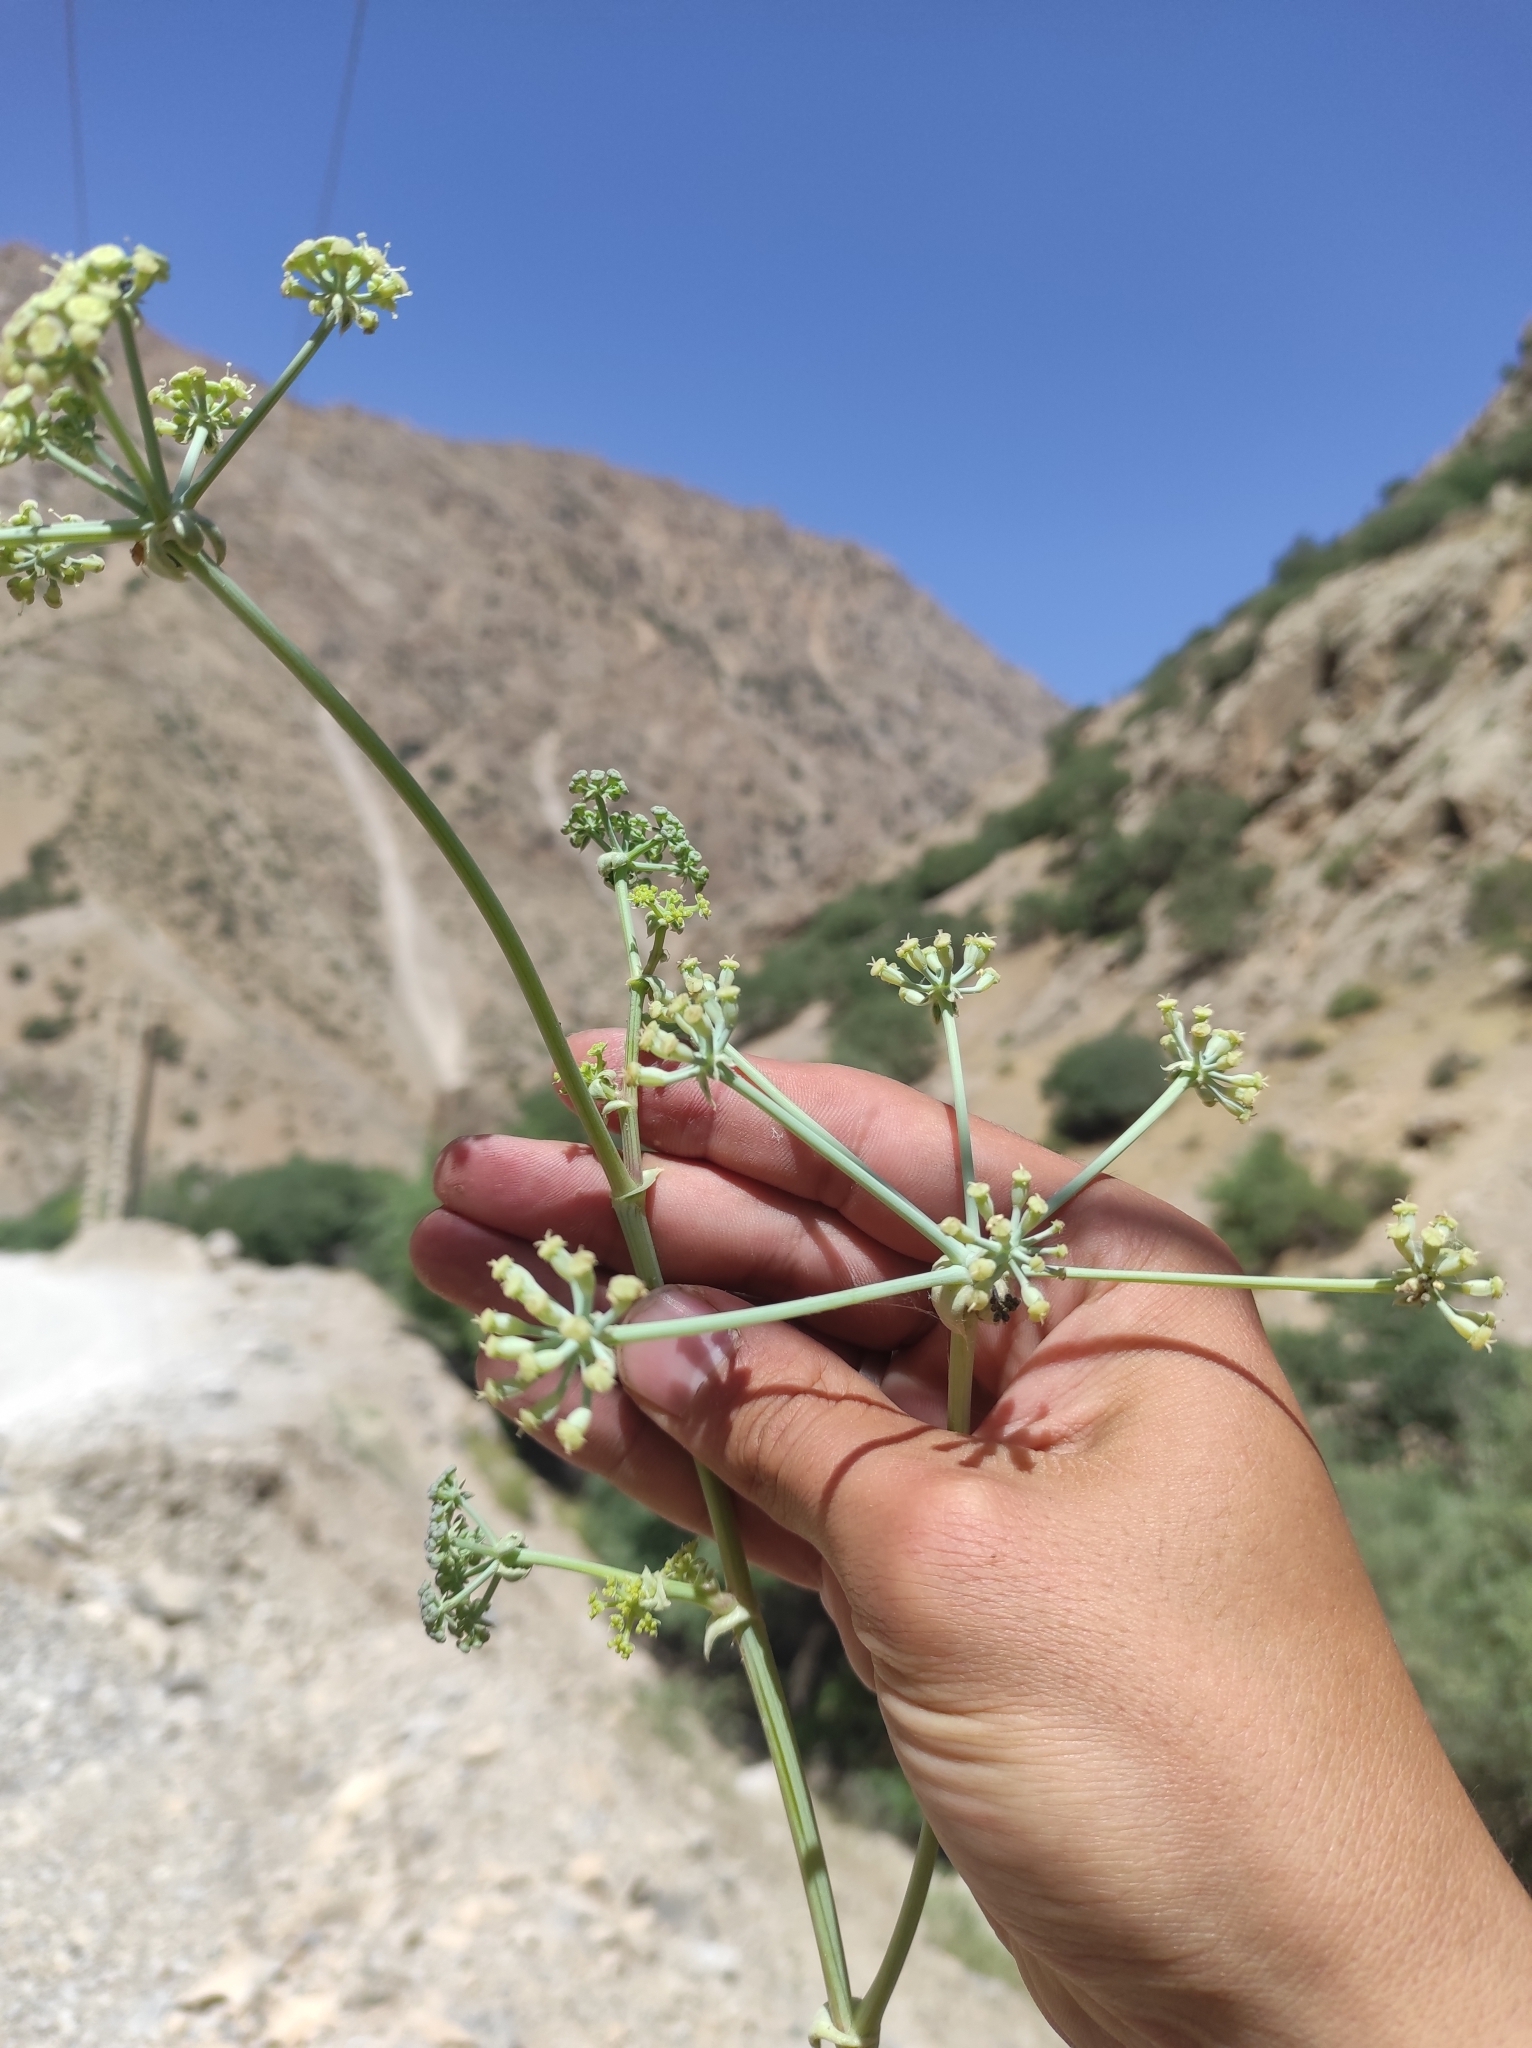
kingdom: Plantae
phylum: Tracheophyta
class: Magnoliopsida
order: Apiales
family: Apiaceae
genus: Azilia
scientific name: Azilia eryngioides
